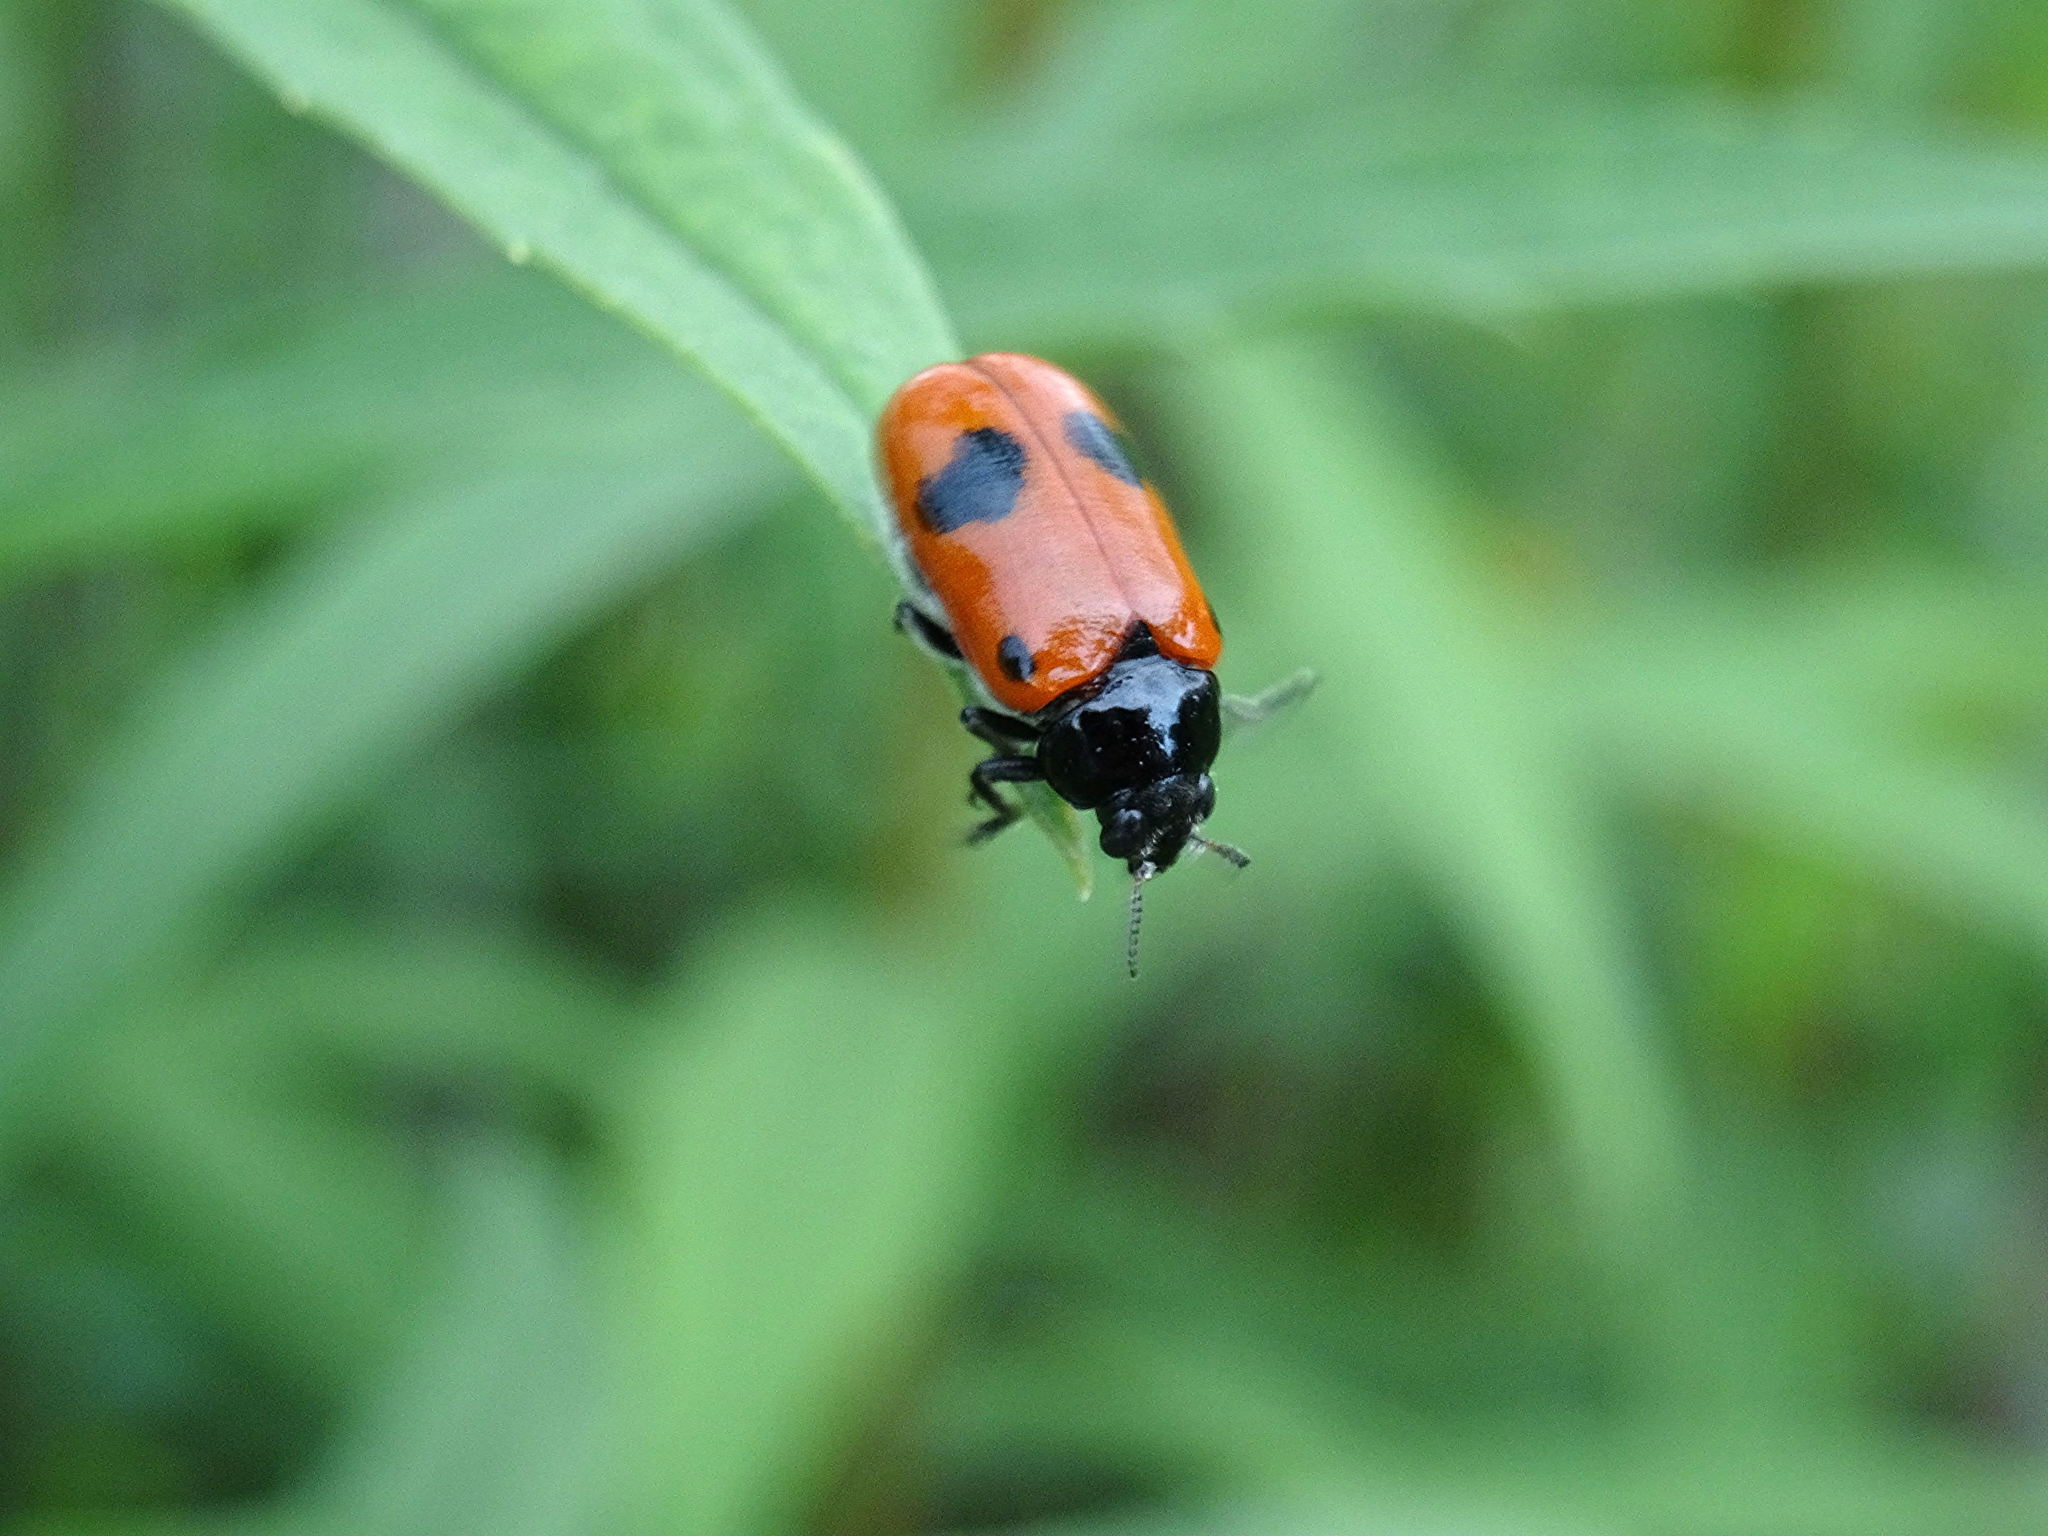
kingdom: Animalia
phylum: Arthropoda
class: Insecta
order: Coleoptera
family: Chrysomelidae
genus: Clytra
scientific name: Clytra laeviuscula
